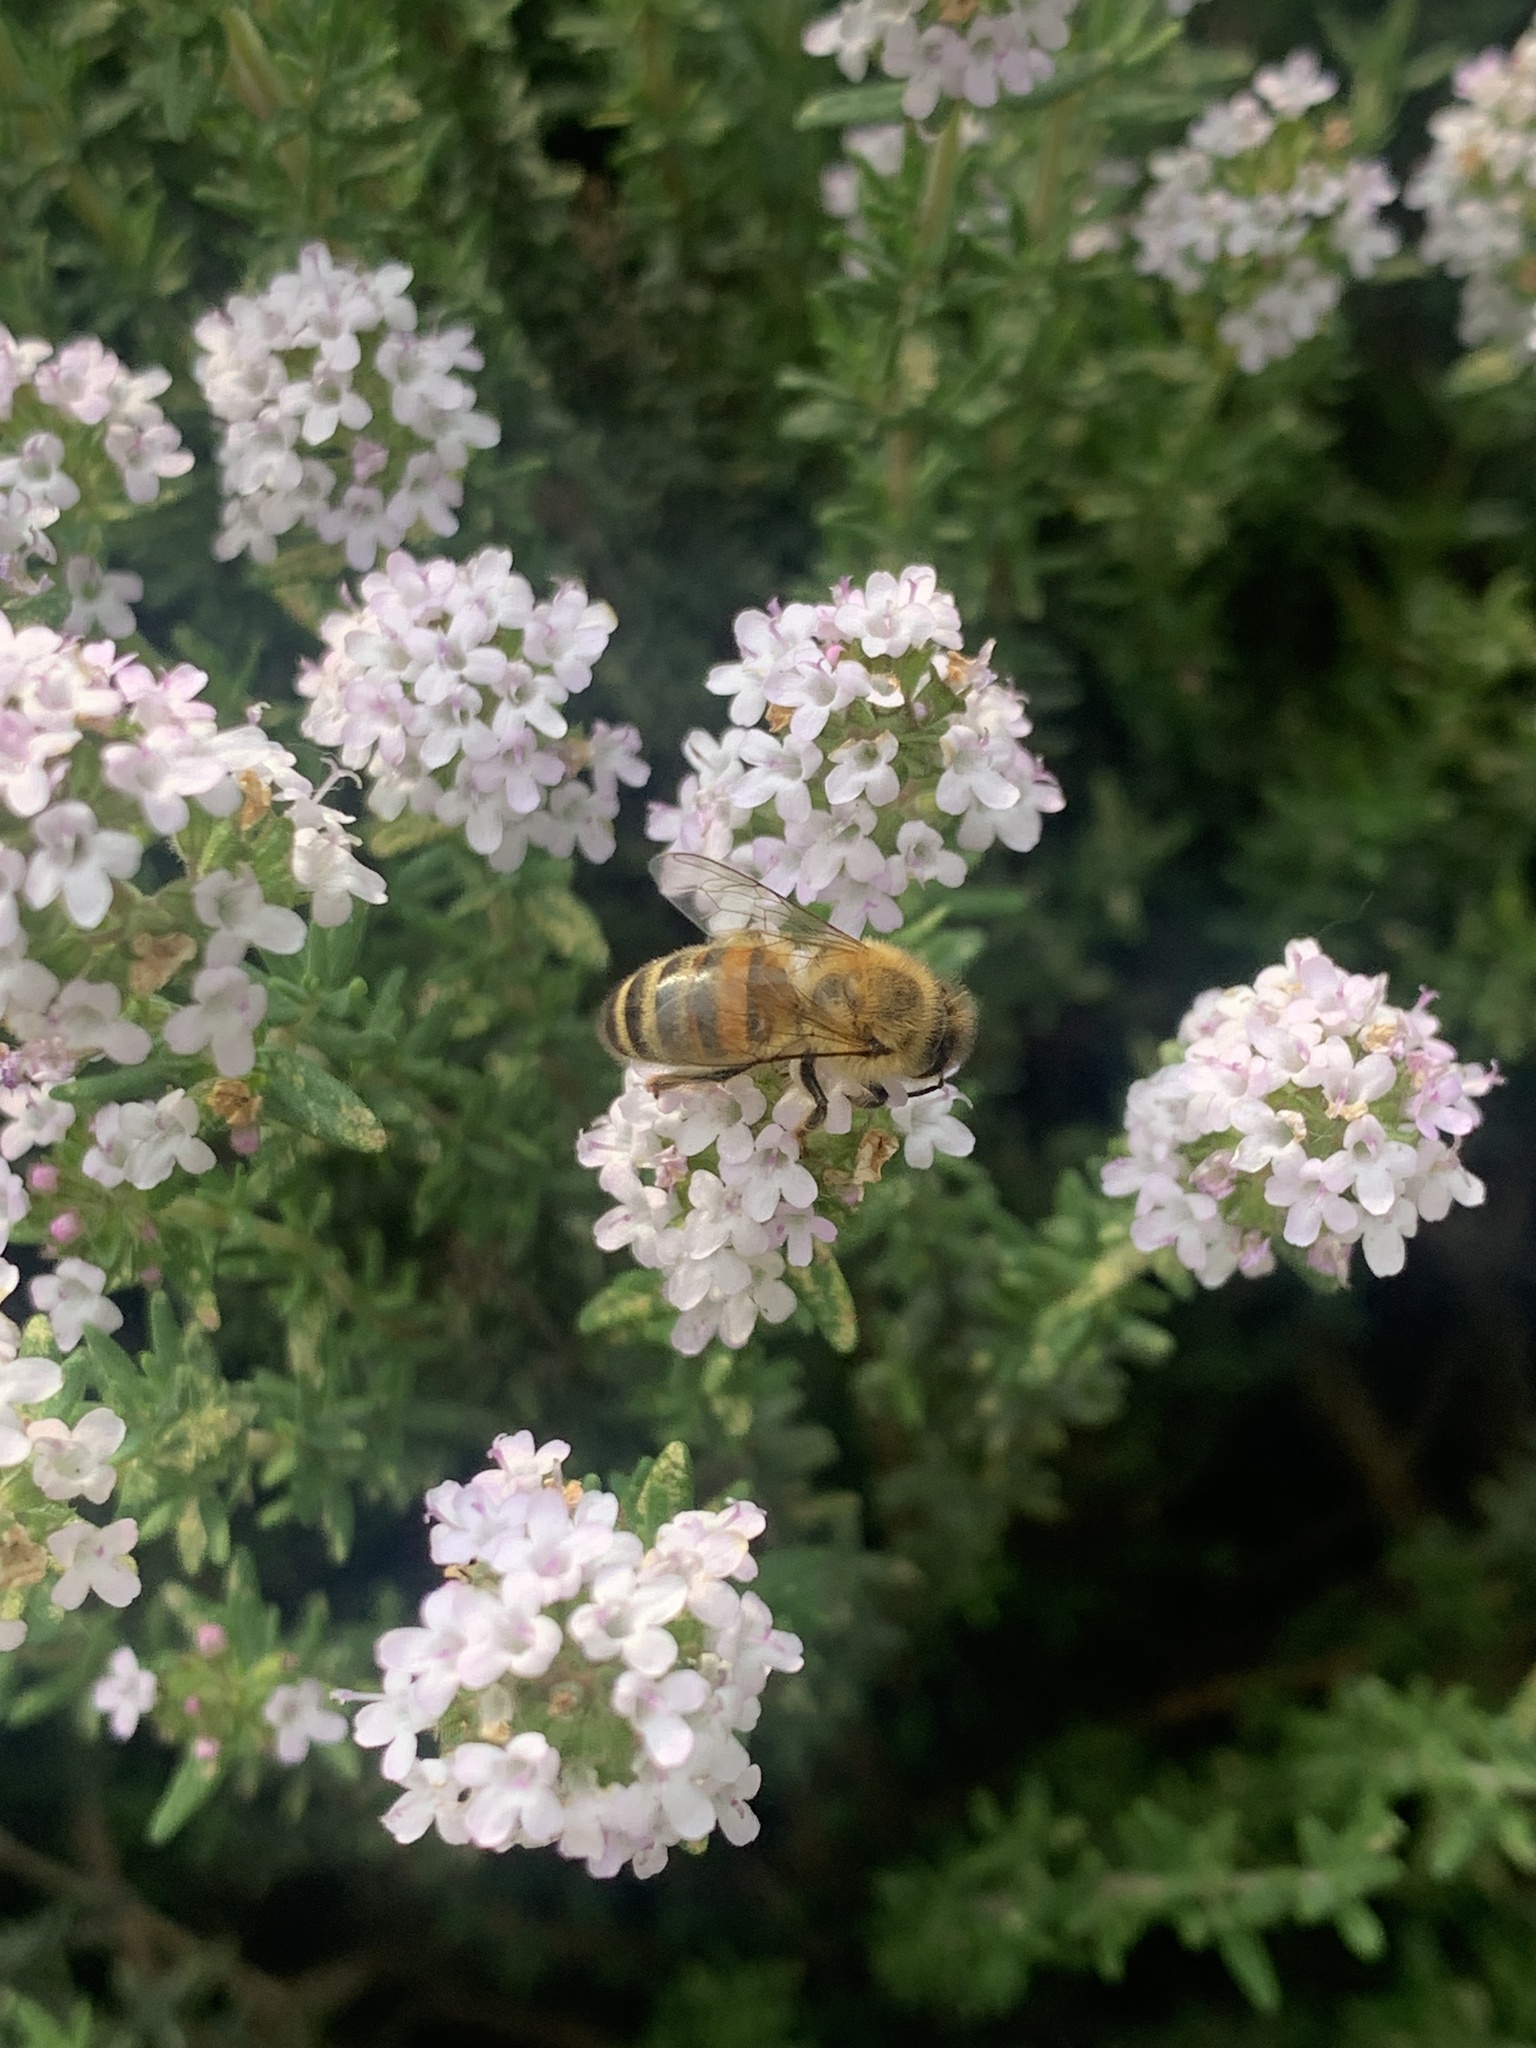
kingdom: Animalia
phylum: Arthropoda
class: Insecta
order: Hymenoptera
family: Apidae
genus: Apis
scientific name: Apis mellifera
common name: Honey bee
